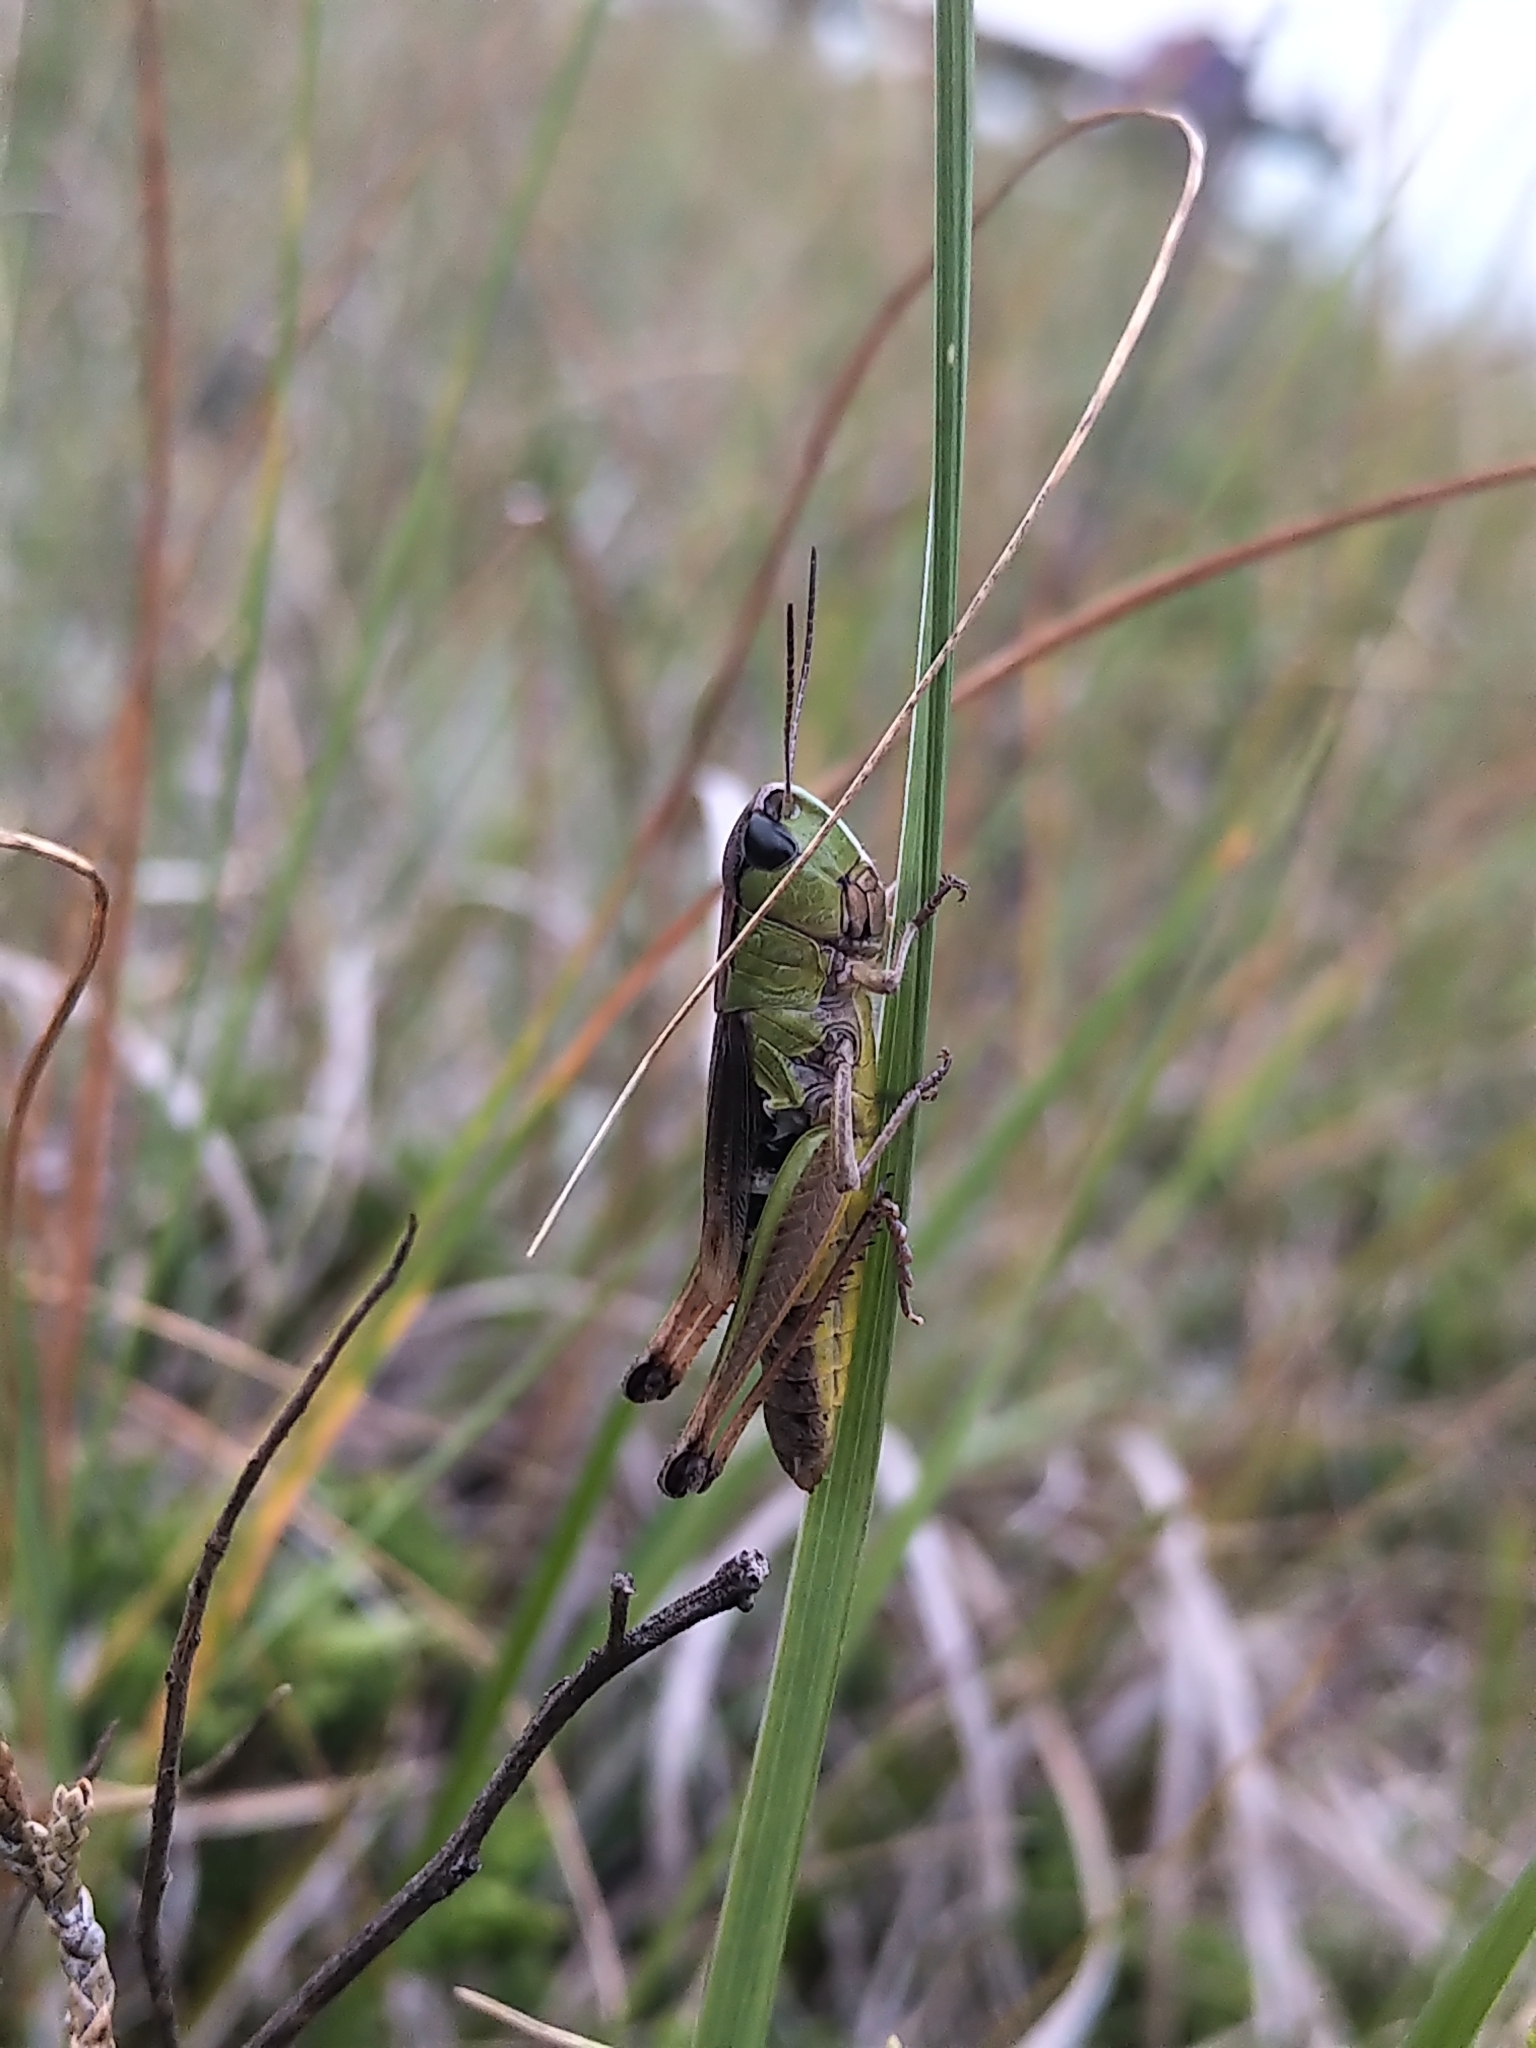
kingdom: Animalia
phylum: Arthropoda
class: Insecta
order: Orthoptera
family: Acrididae
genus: Pseudochorthippus
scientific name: Pseudochorthippus curtipennis
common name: Marsh meadow grasshopper
